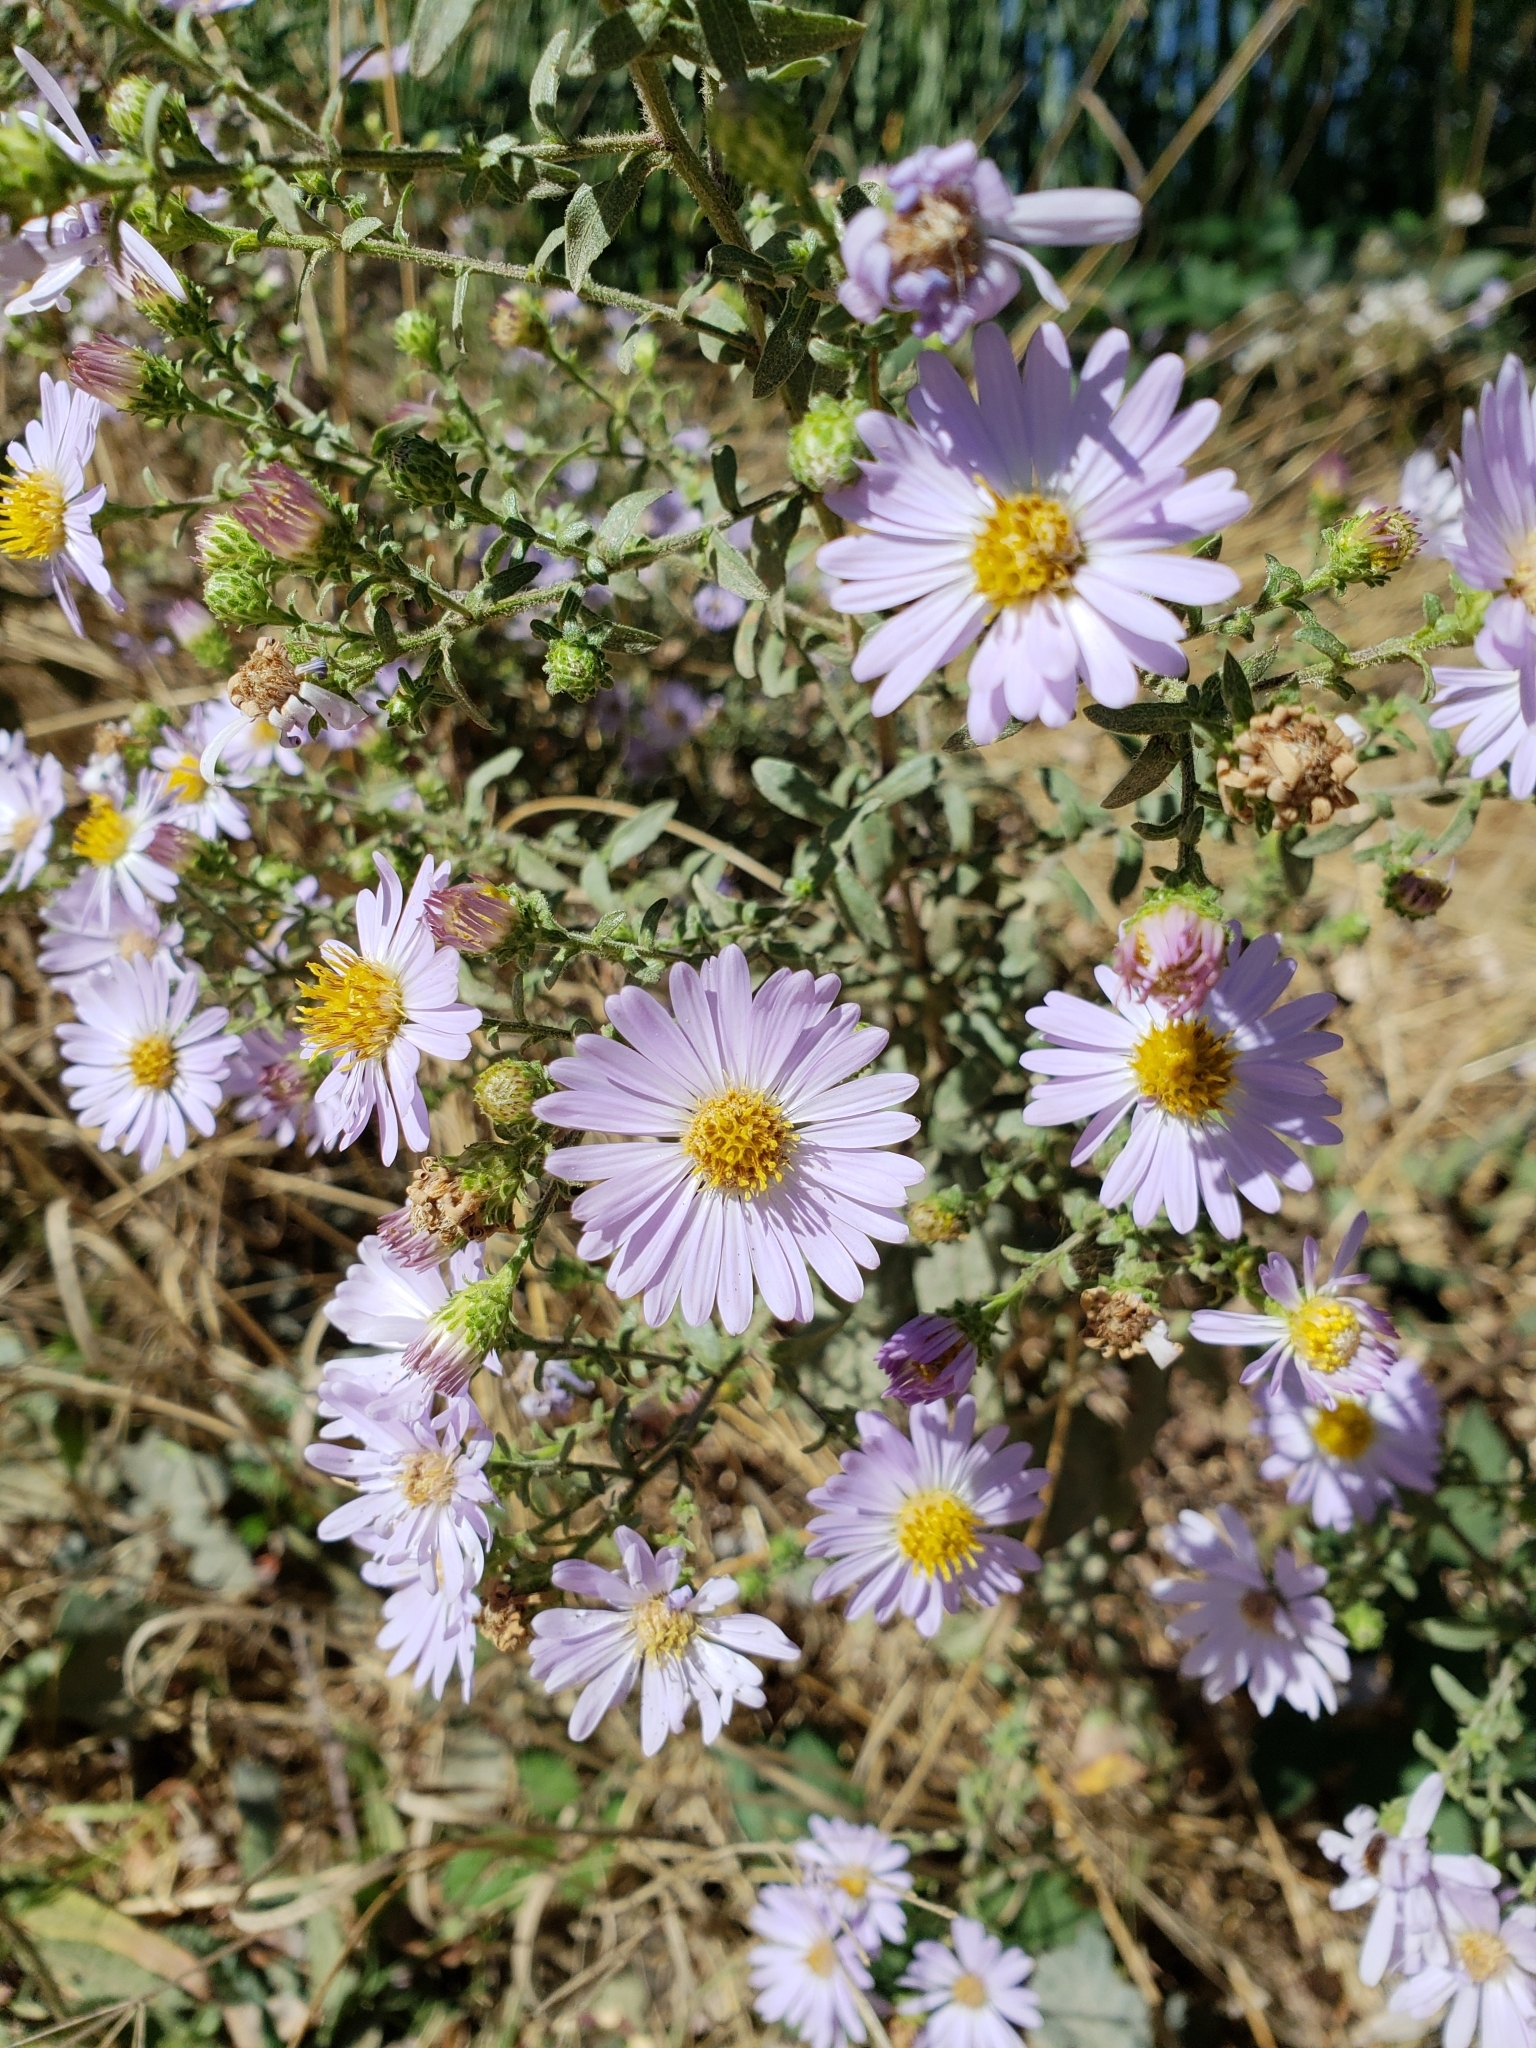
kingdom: Plantae
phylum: Tracheophyta
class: Magnoliopsida
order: Asterales
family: Asteraceae
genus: Corethrogyne
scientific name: Corethrogyne filaginifolia
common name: Sand-aster
